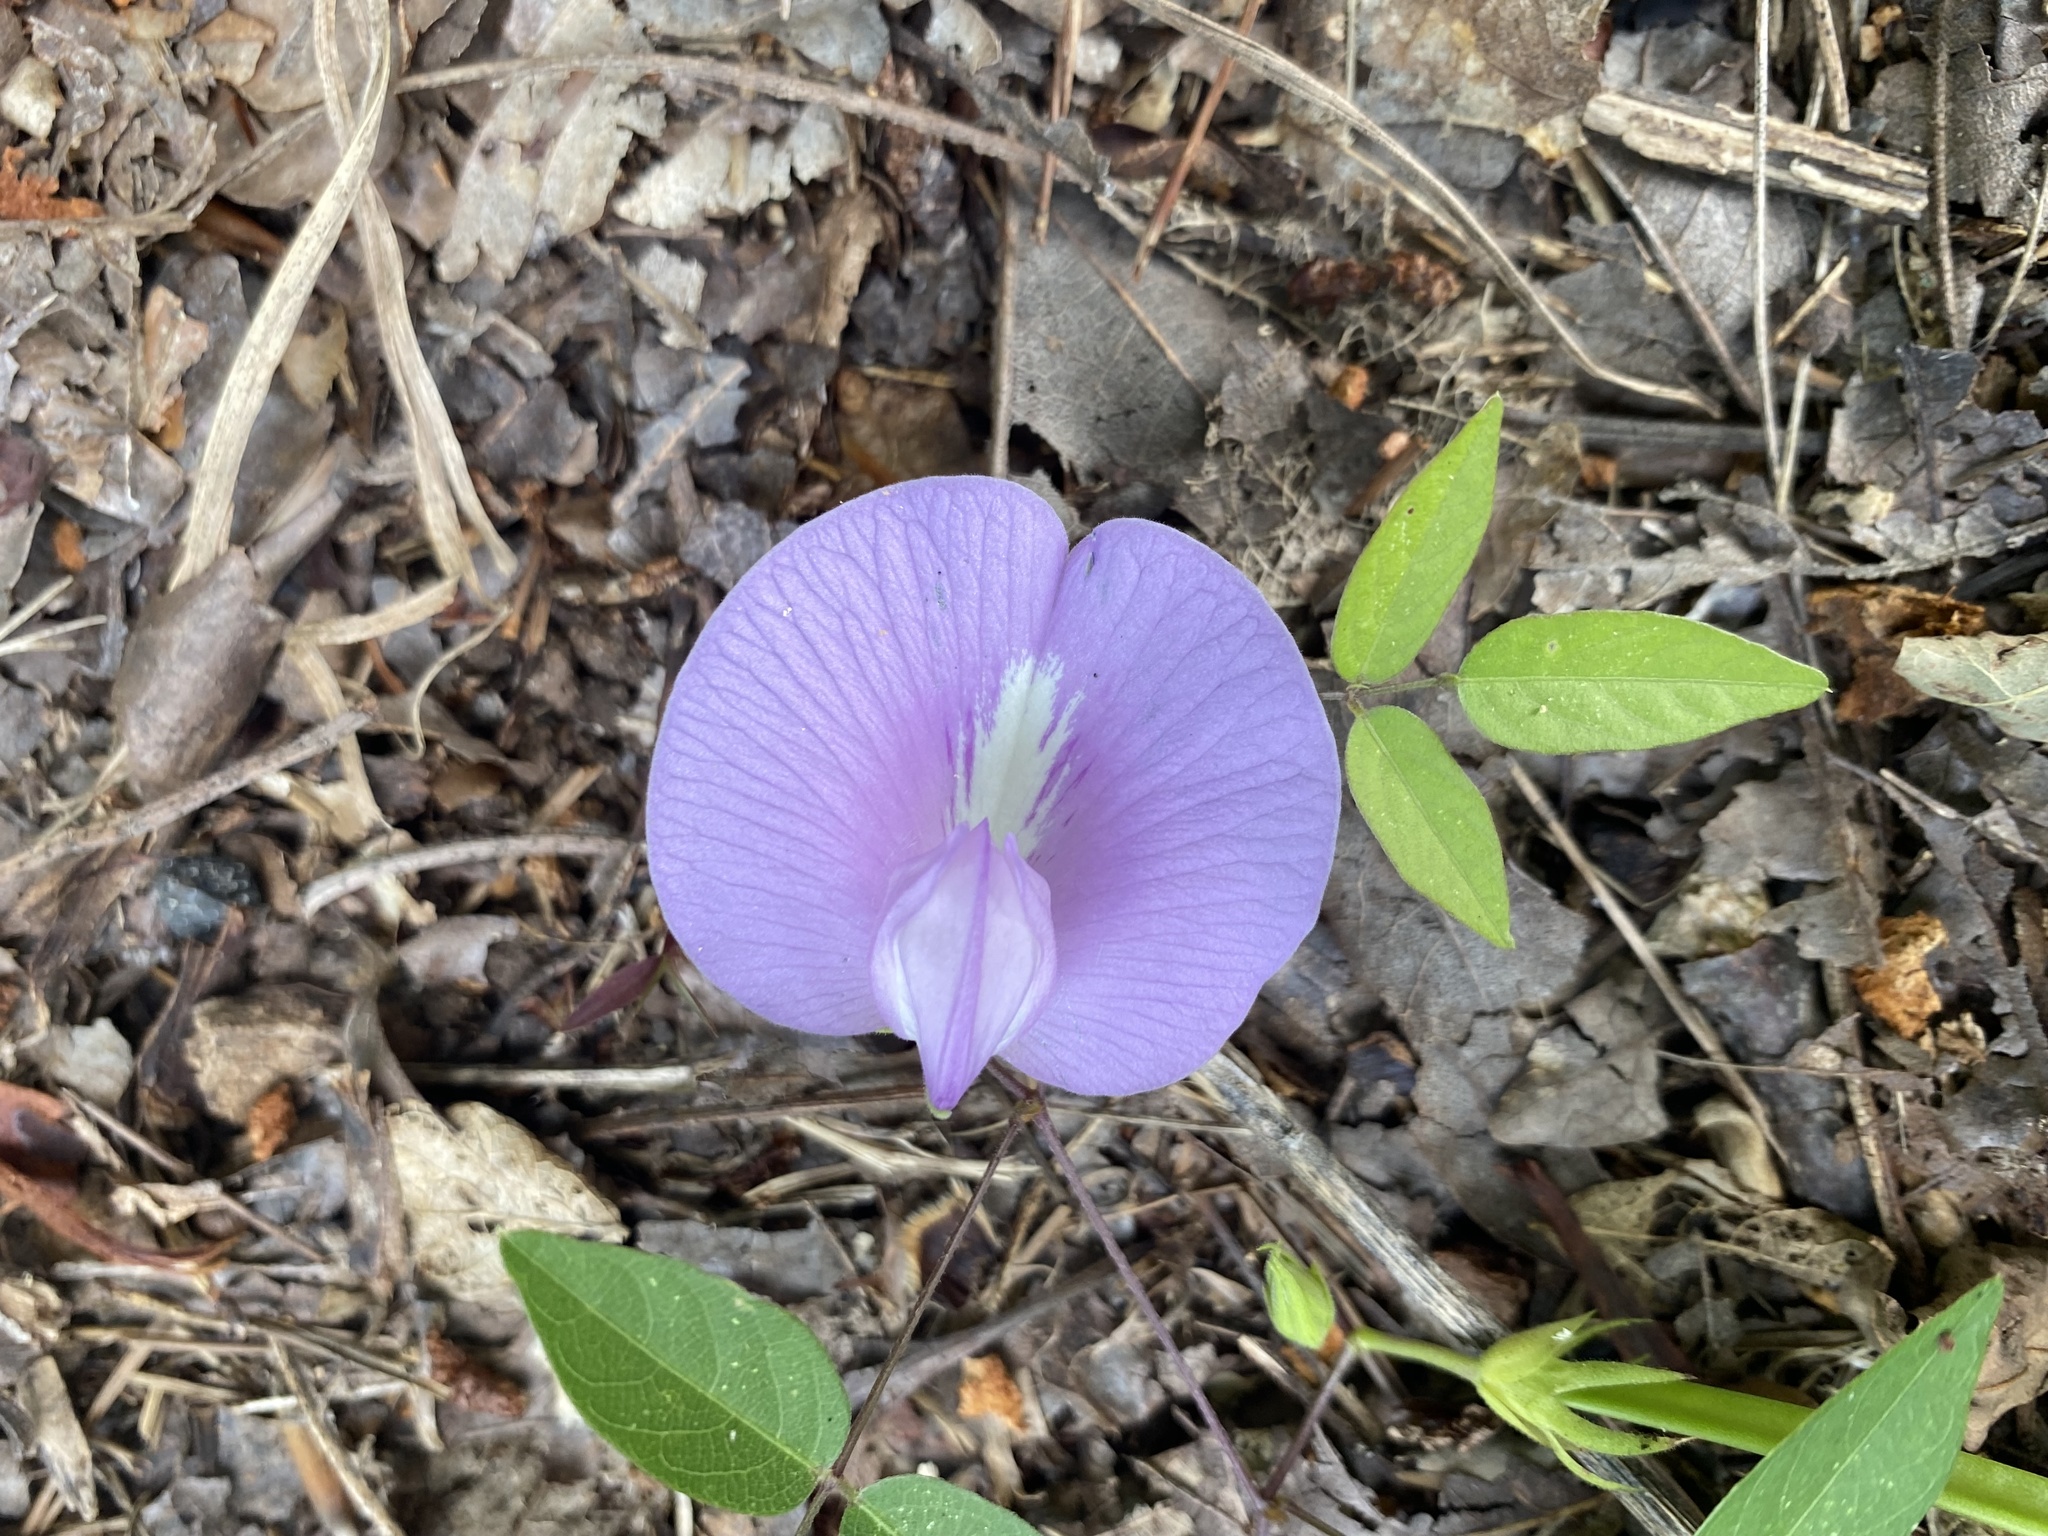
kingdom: Plantae
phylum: Tracheophyta
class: Magnoliopsida
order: Fabales
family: Fabaceae
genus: Centrosema
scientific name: Centrosema virginianum
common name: Butterfly-pea
